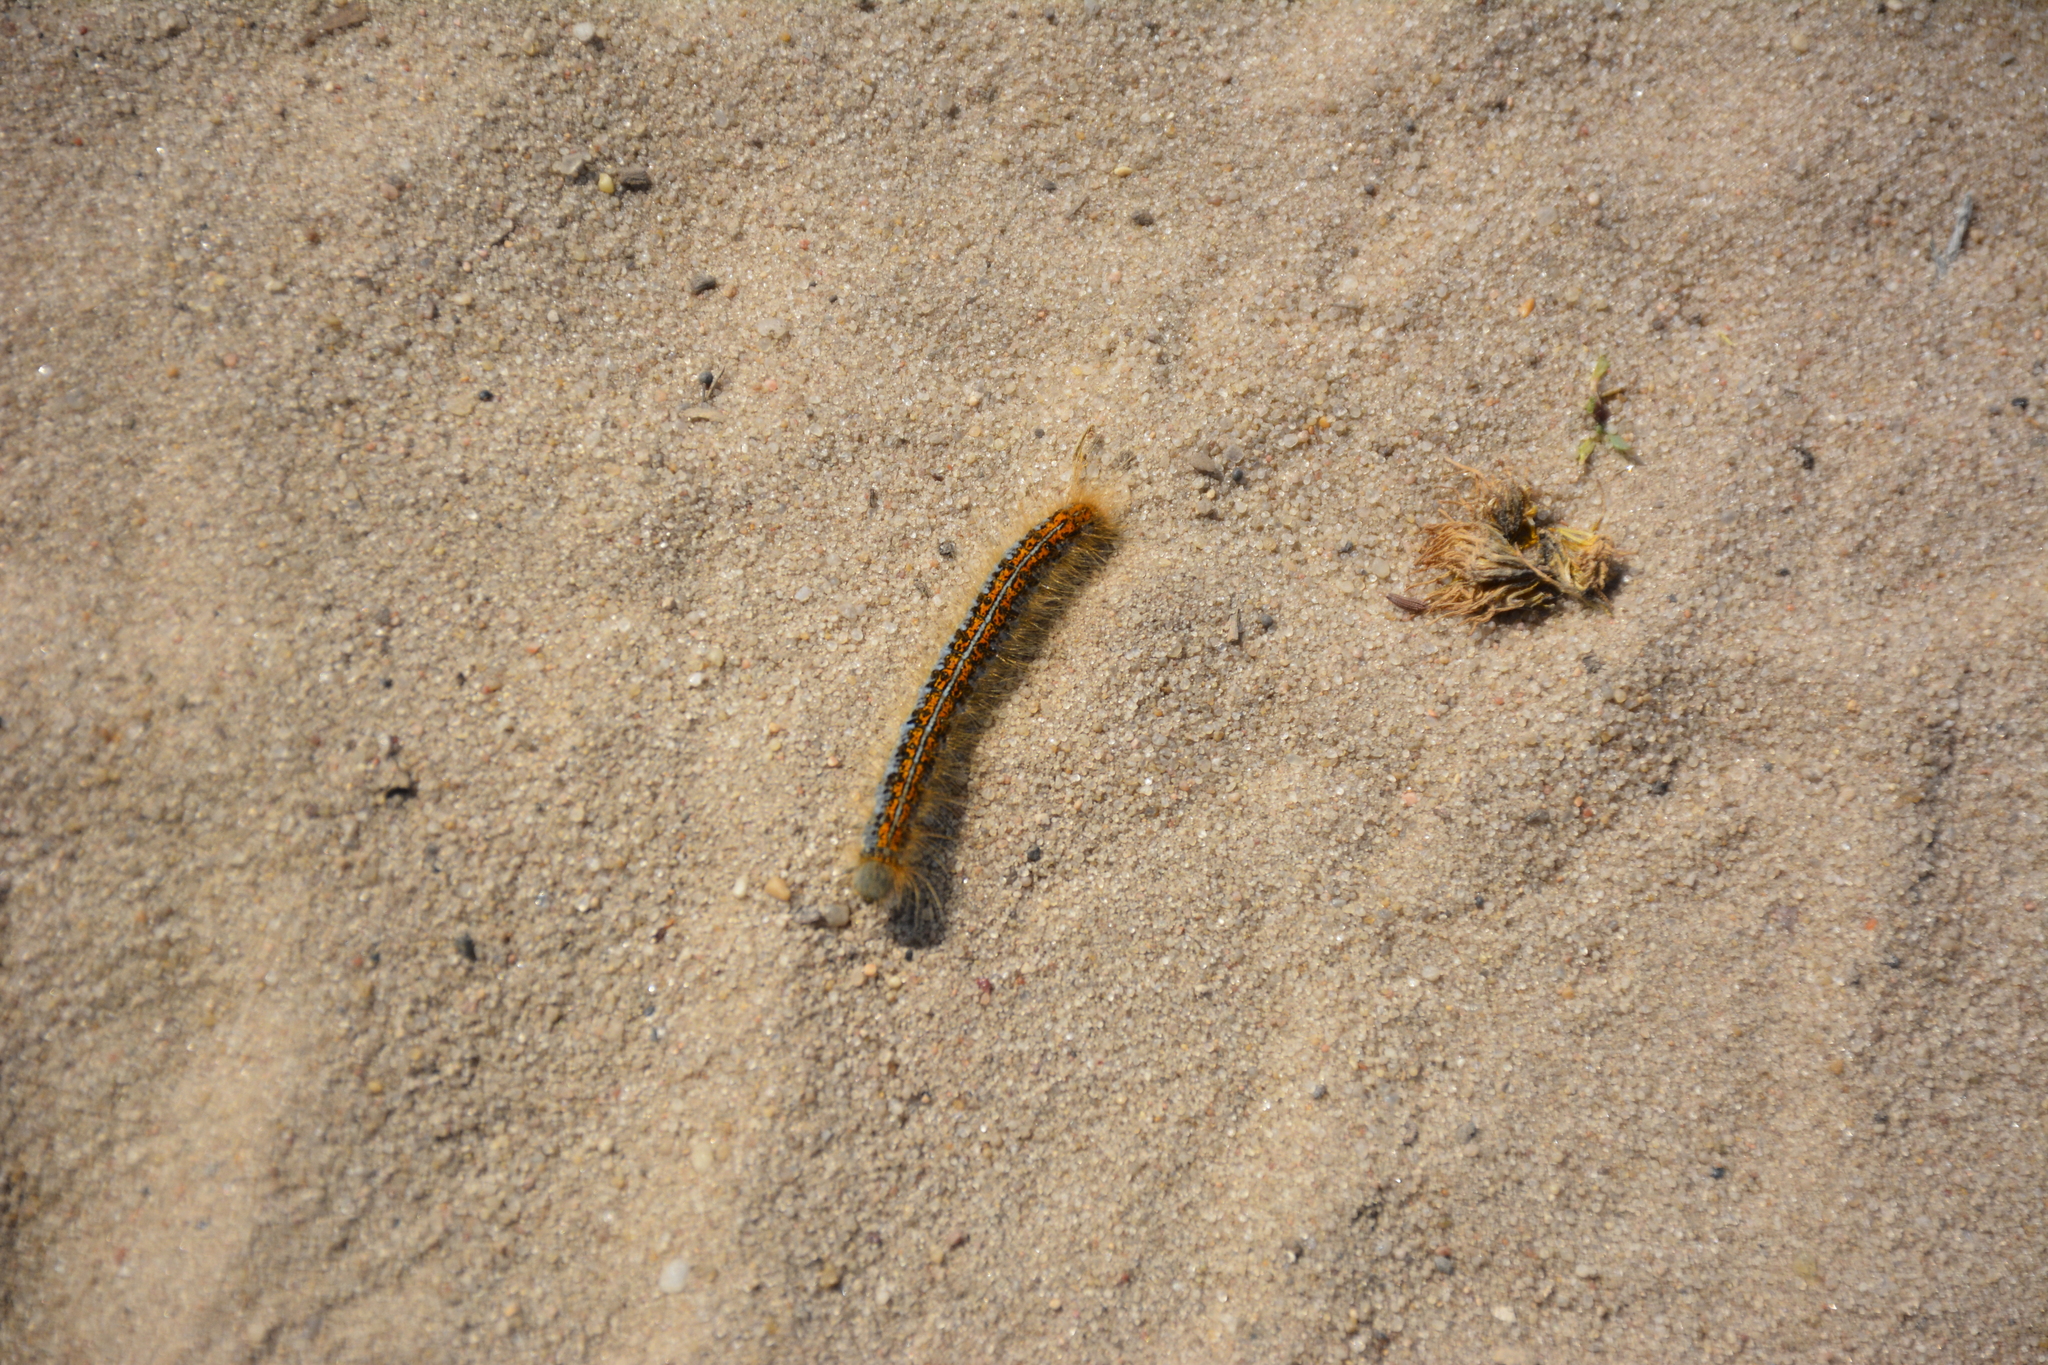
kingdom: Animalia
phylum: Arthropoda
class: Insecta
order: Lepidoptera
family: Lasiocampidae
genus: Malacosoma
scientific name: Malacosoma castrense
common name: Ground lackey
